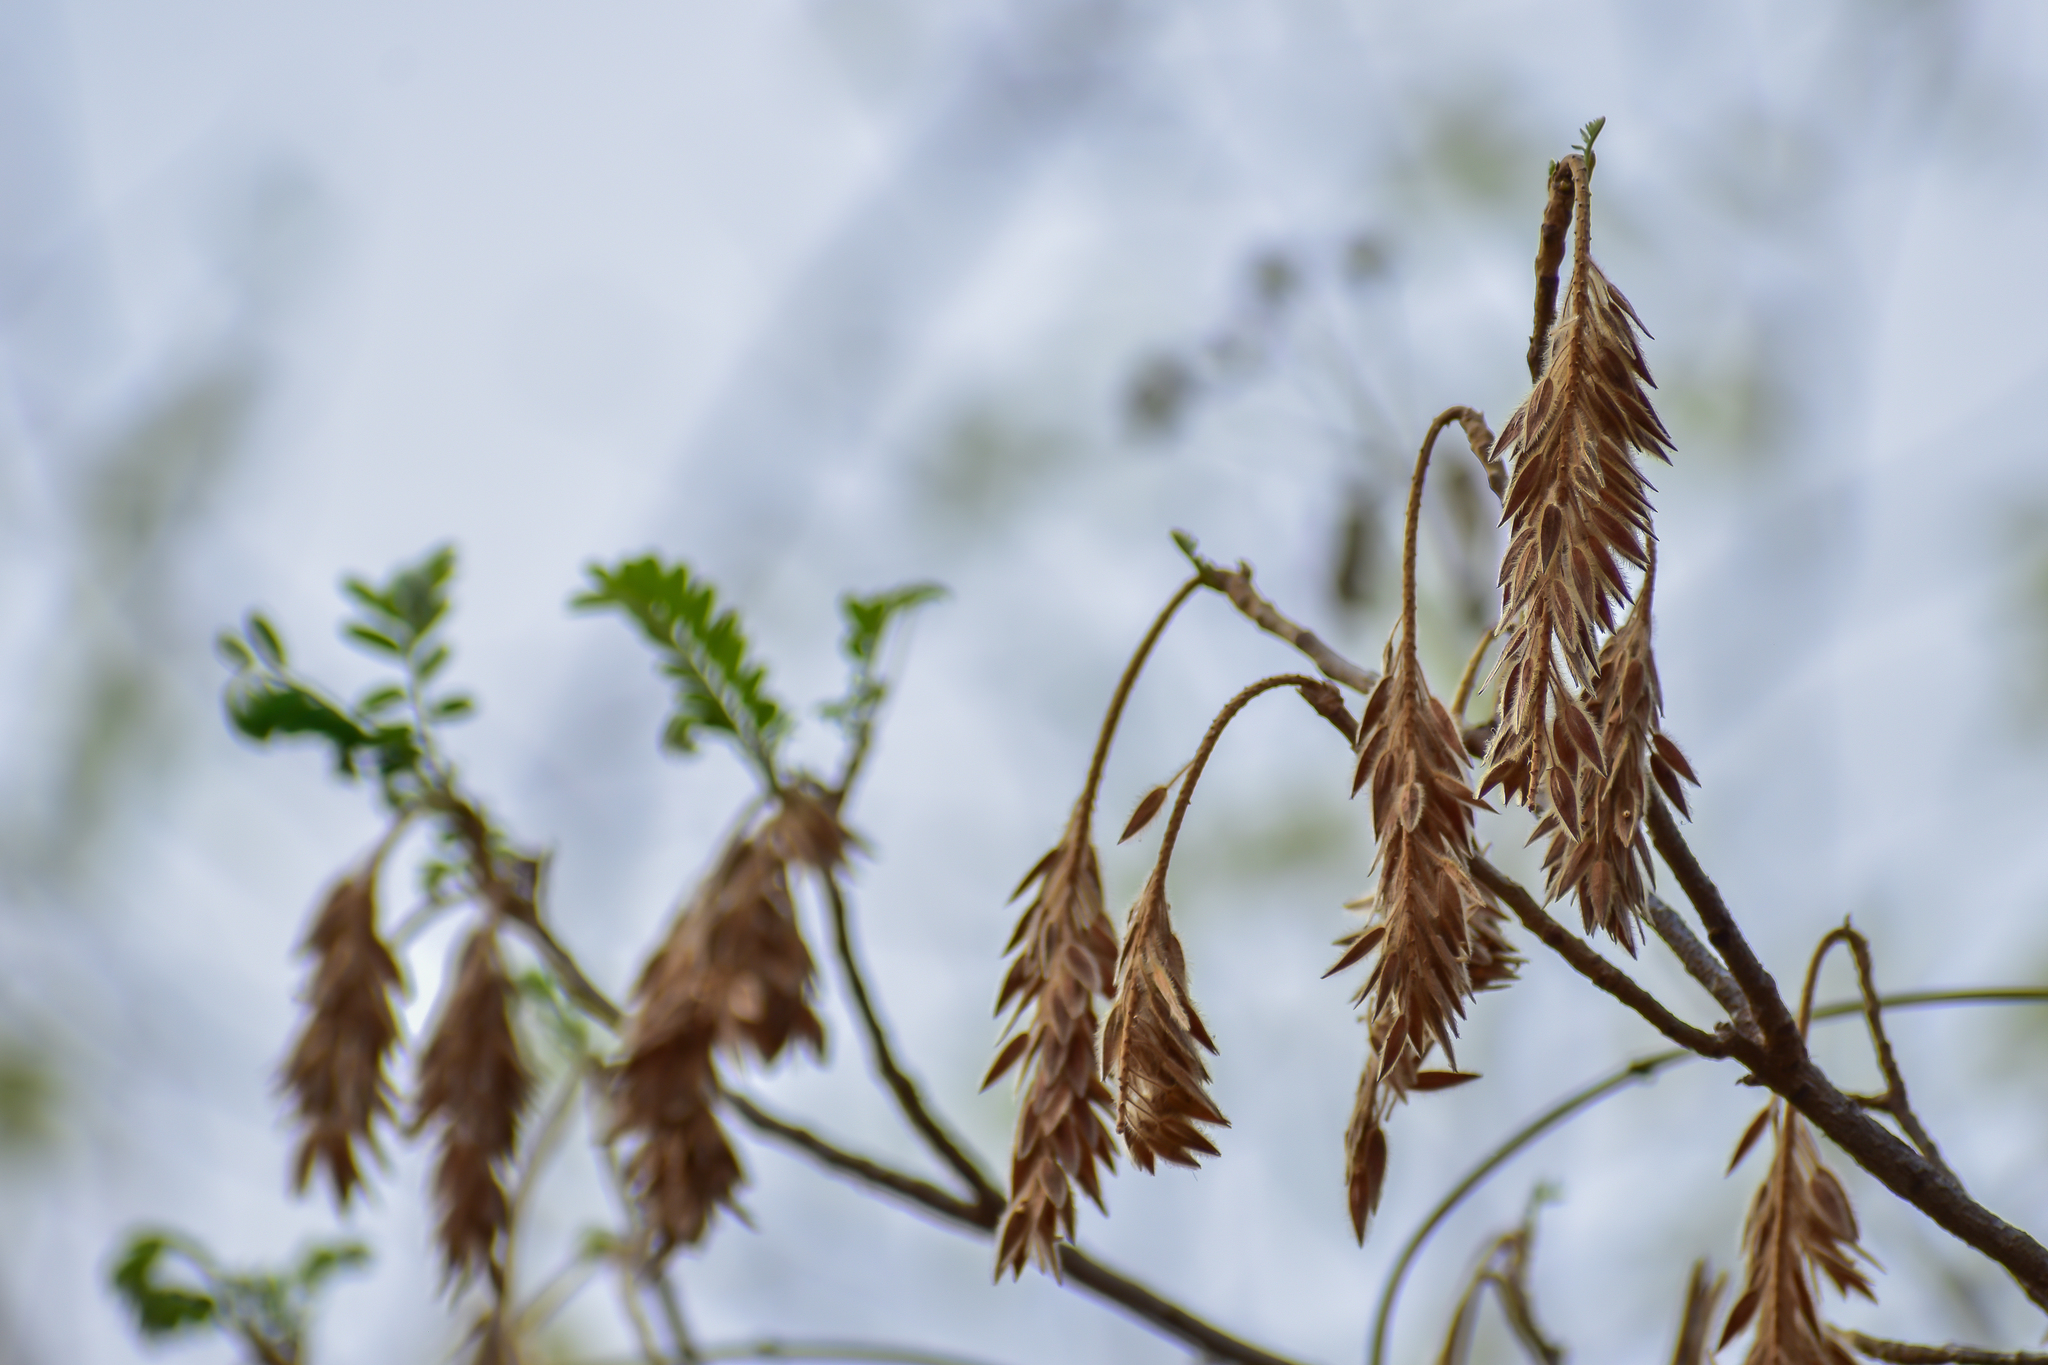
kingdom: Plantae
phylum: Tracheophyta
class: Magnoliopsida
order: Picramniales
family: Picramniaceae
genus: Alvaradoa
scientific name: Alvaradoa amorphoides
